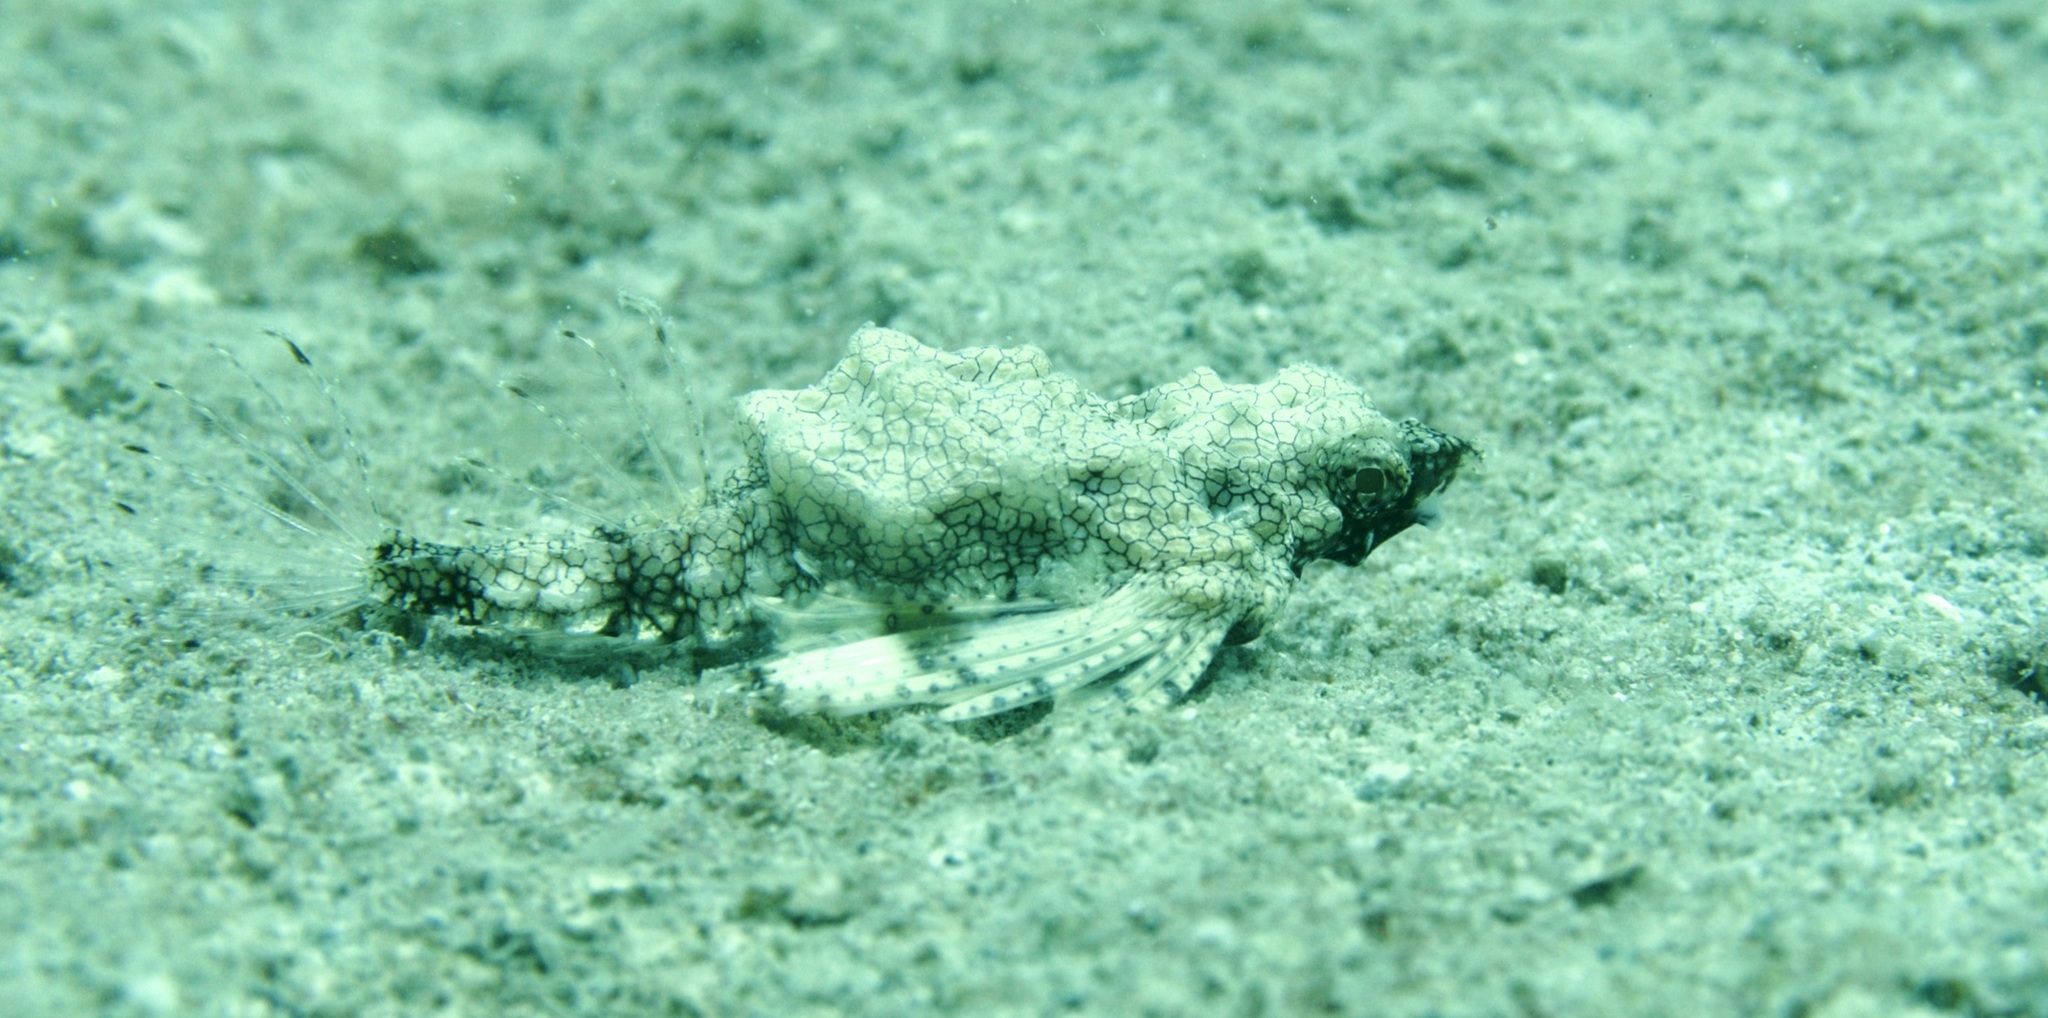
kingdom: Animalia
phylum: Chordata
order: Gasterosteiformes
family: Pegasidae
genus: Eurypegasus
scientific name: Eurypegasus draconis
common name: Short dragonfish
